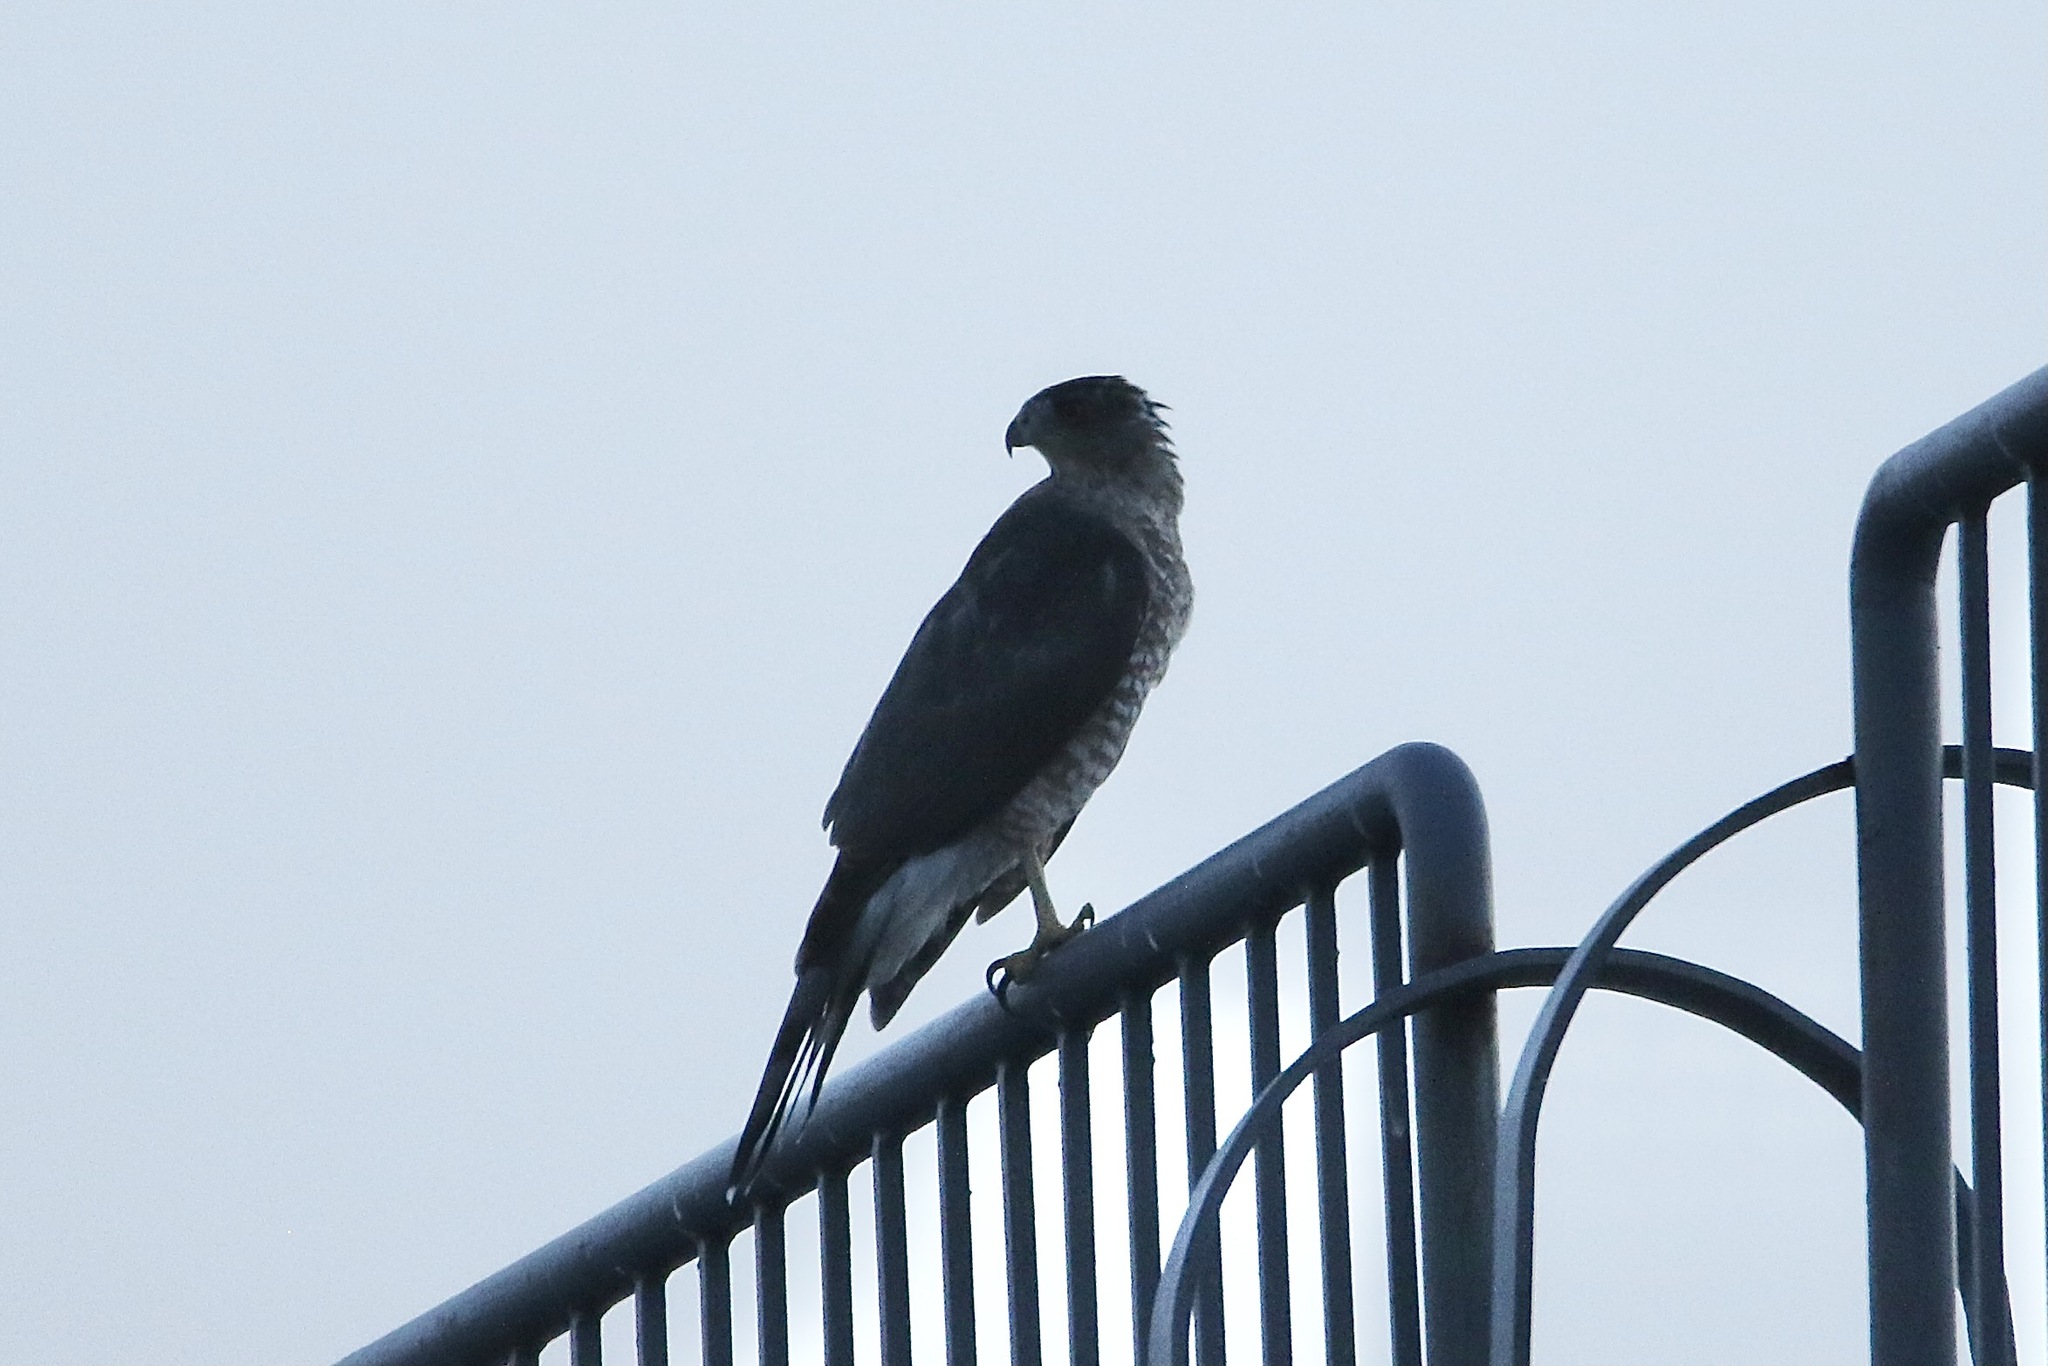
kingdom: Animalia
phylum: Chordata
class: Aves
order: Accipitriformes
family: Accipitridae
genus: Accipiter
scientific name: Accipiter cooperii
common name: Cooper's hawk
